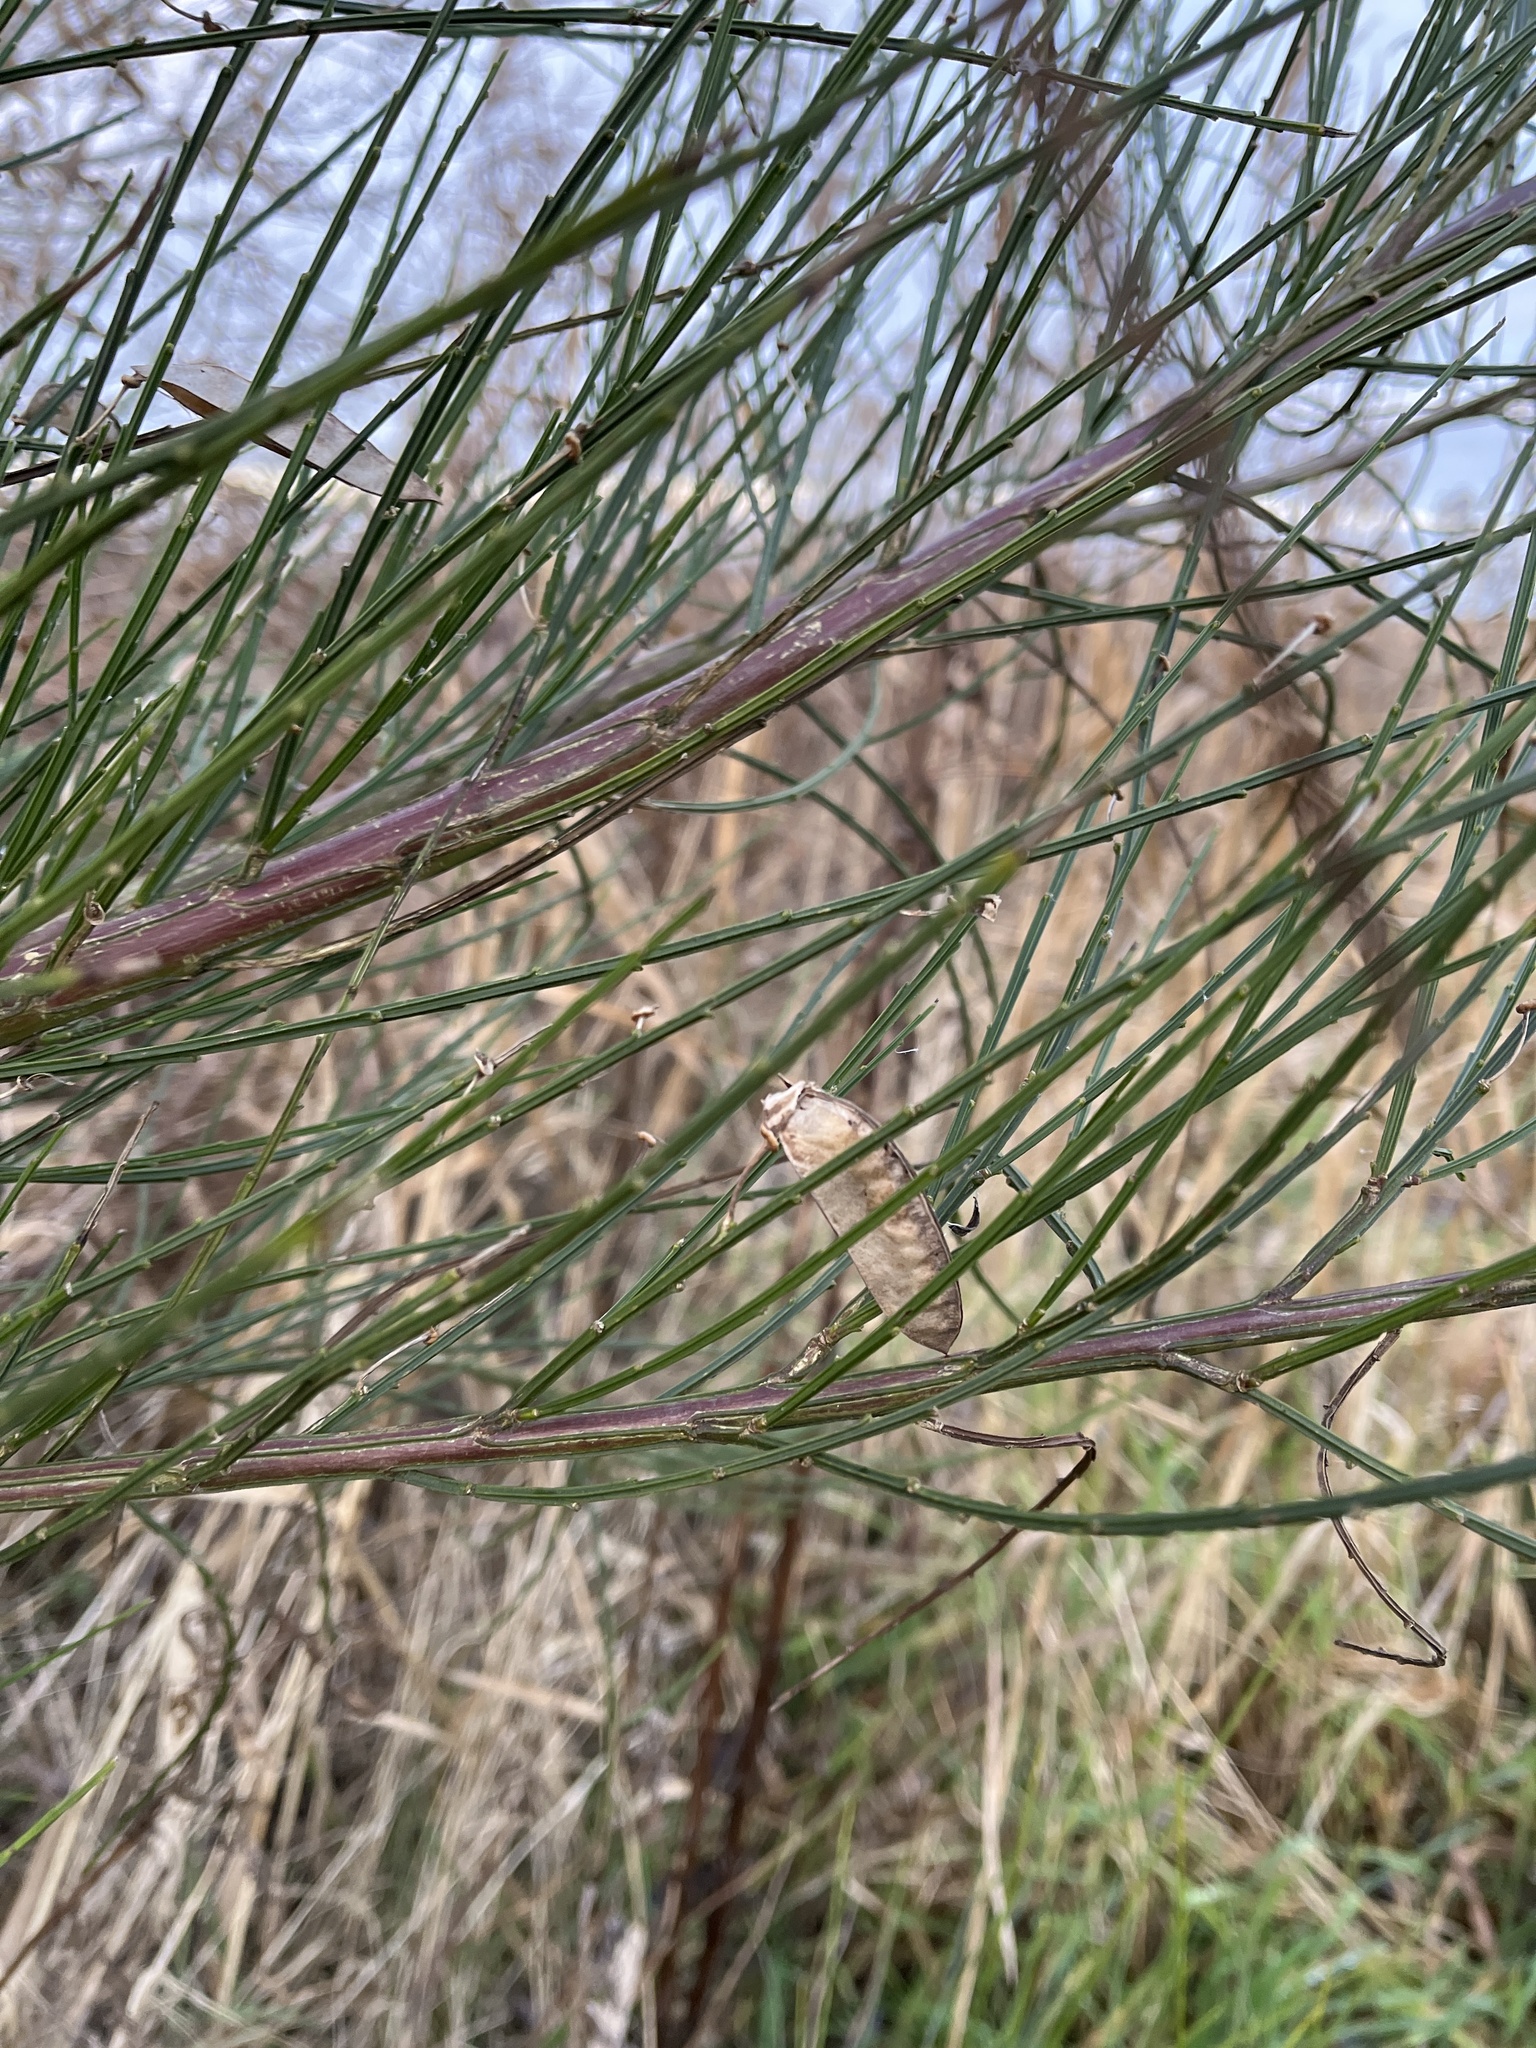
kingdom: Plantae
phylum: Tracheophyta
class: Magnoliopsida
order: Fabales
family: Fabaceae
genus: Cytisus
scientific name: Cytisus scoparius
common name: Scotch broom
